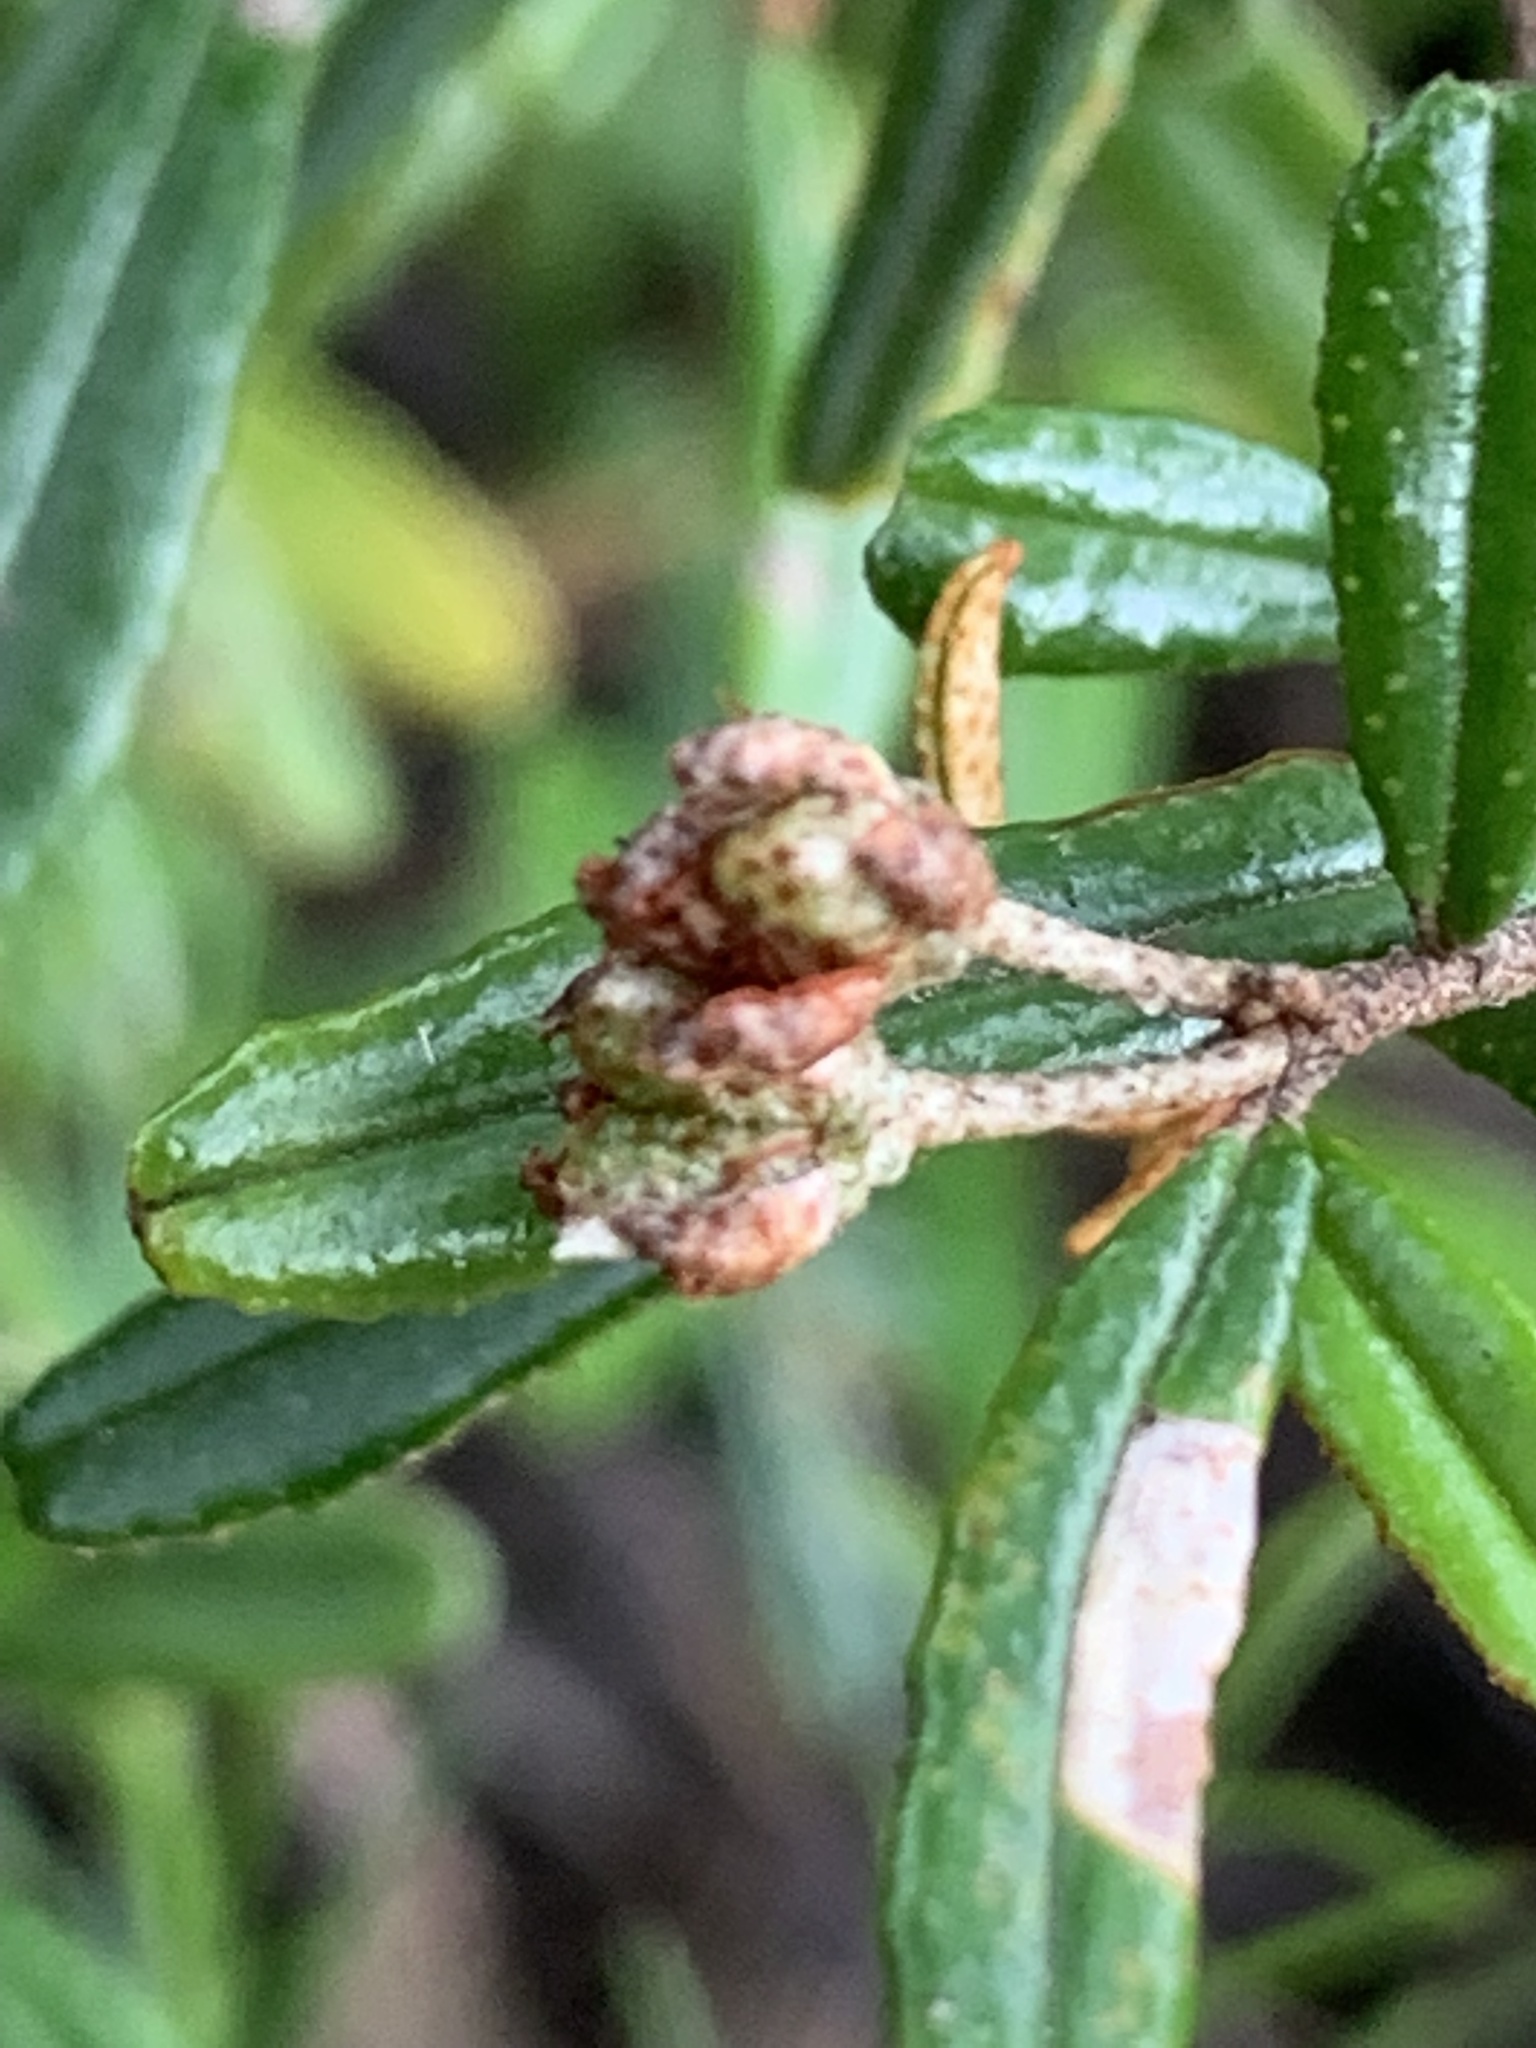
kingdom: Plantae
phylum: Tracheophyta
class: Magnoliopsida
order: Sapindales
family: Rutaceae
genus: Phebalium
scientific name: Phebalium squamulosum
